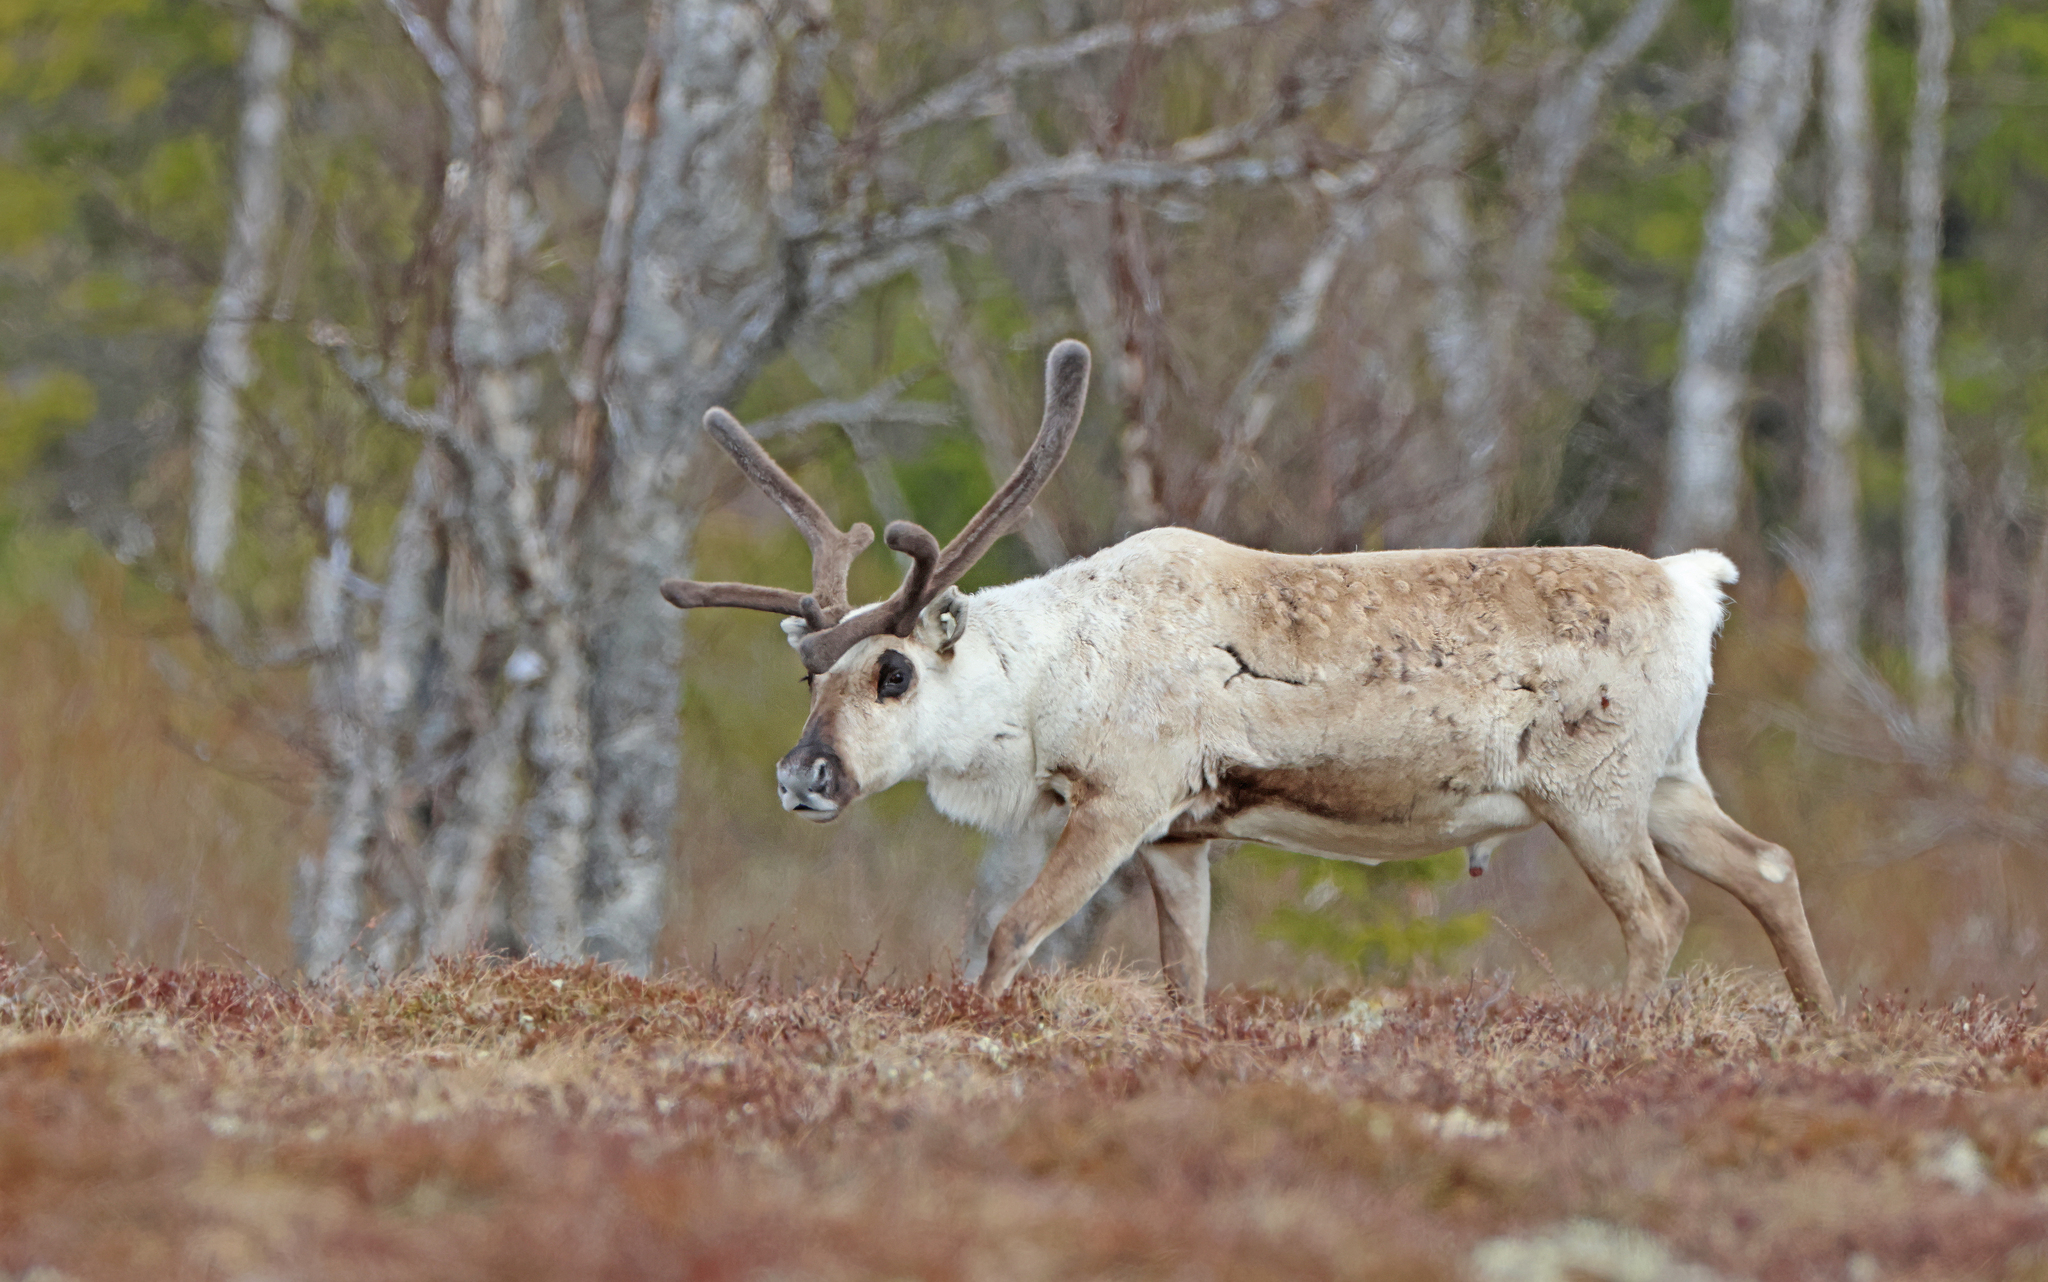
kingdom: Animalia
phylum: Chordata
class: Mammalia
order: Artiodactyla
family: Cervidae
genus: Rangifer
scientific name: Rangifer tarandus
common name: Reindeer
